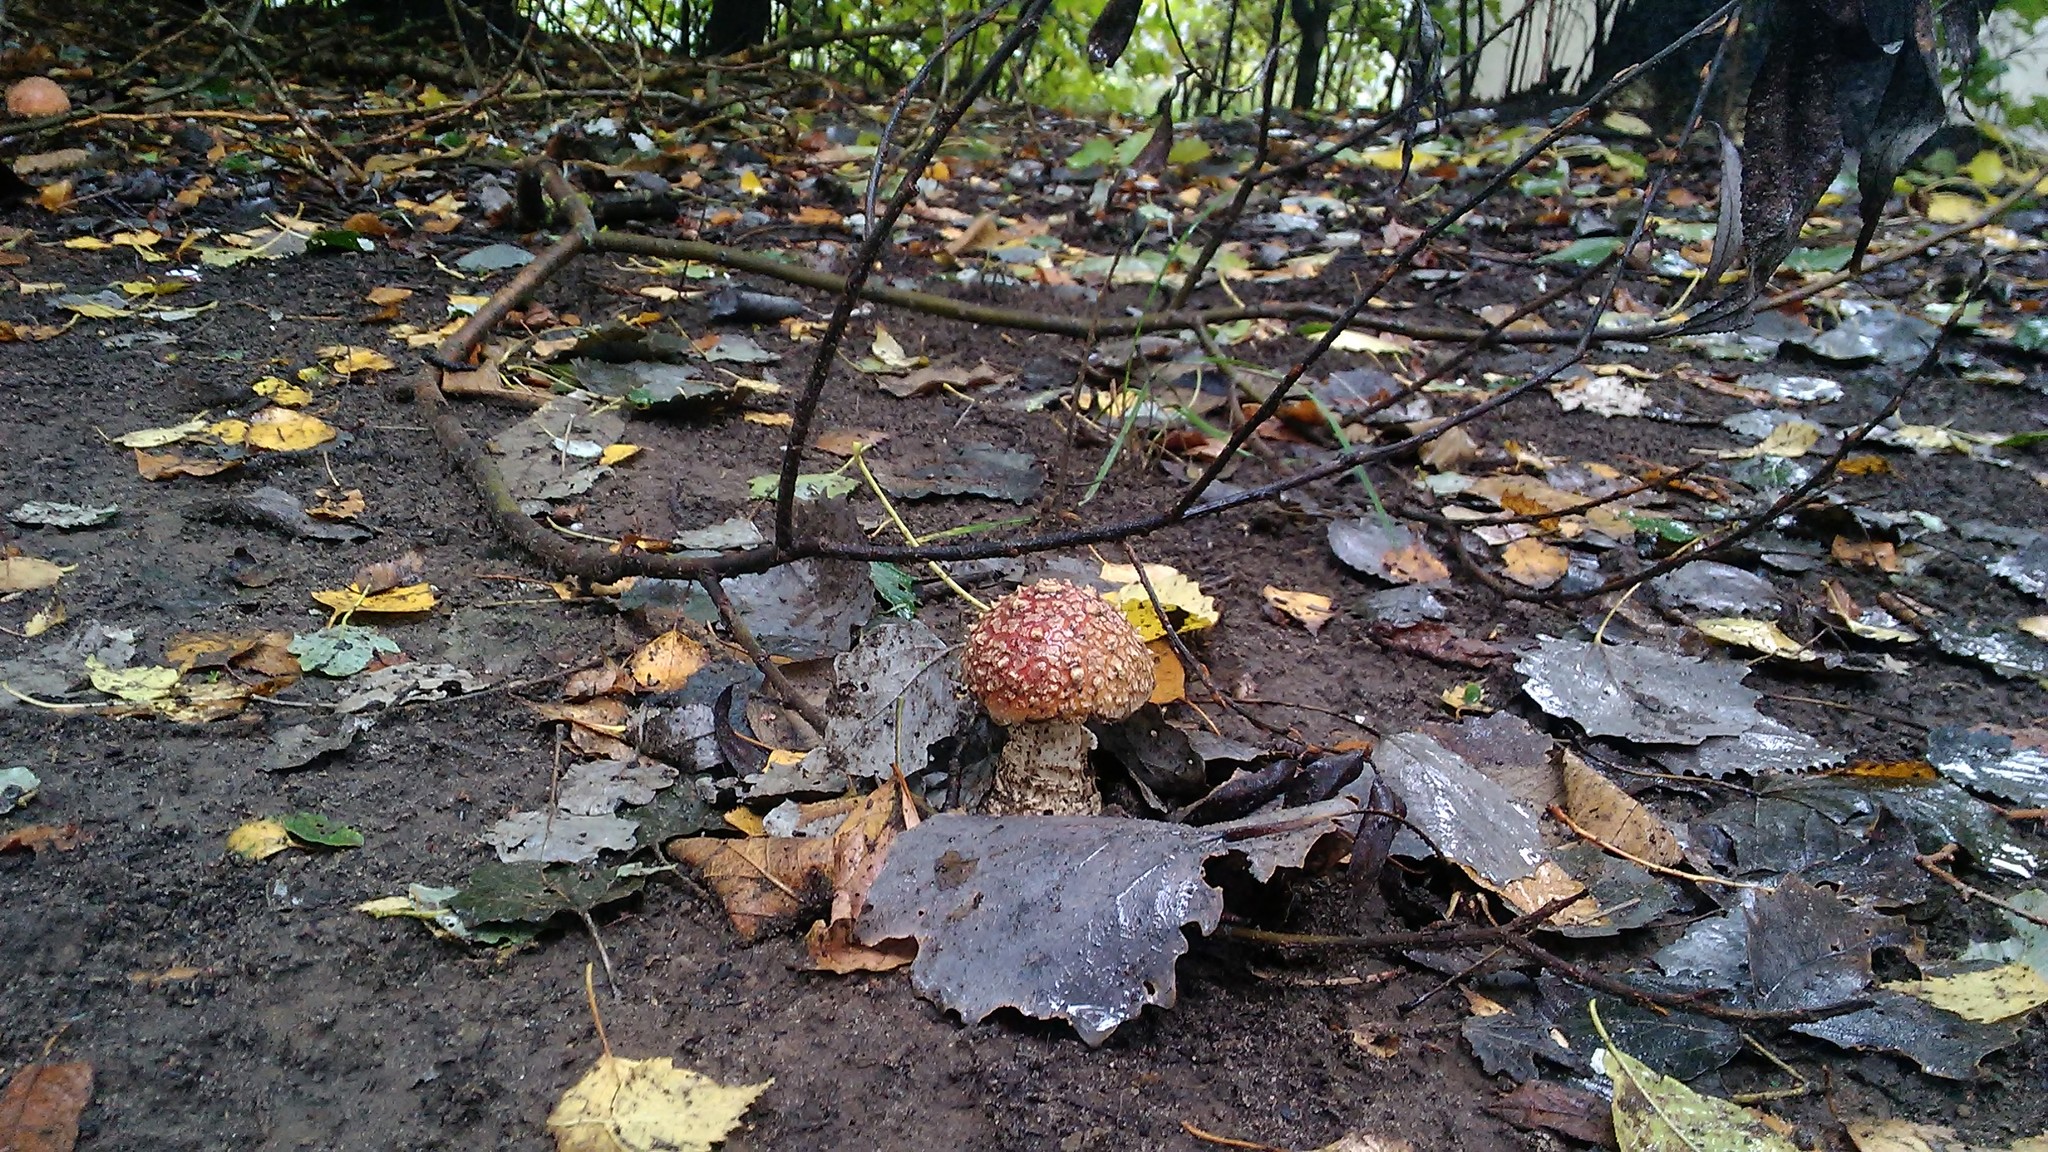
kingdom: Fungi
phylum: Basidiomycota
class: Agaricomycetes
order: Agaricales
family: Amanitaceae
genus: Amanita
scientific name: Amanita muscaria
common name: Fly agaric
